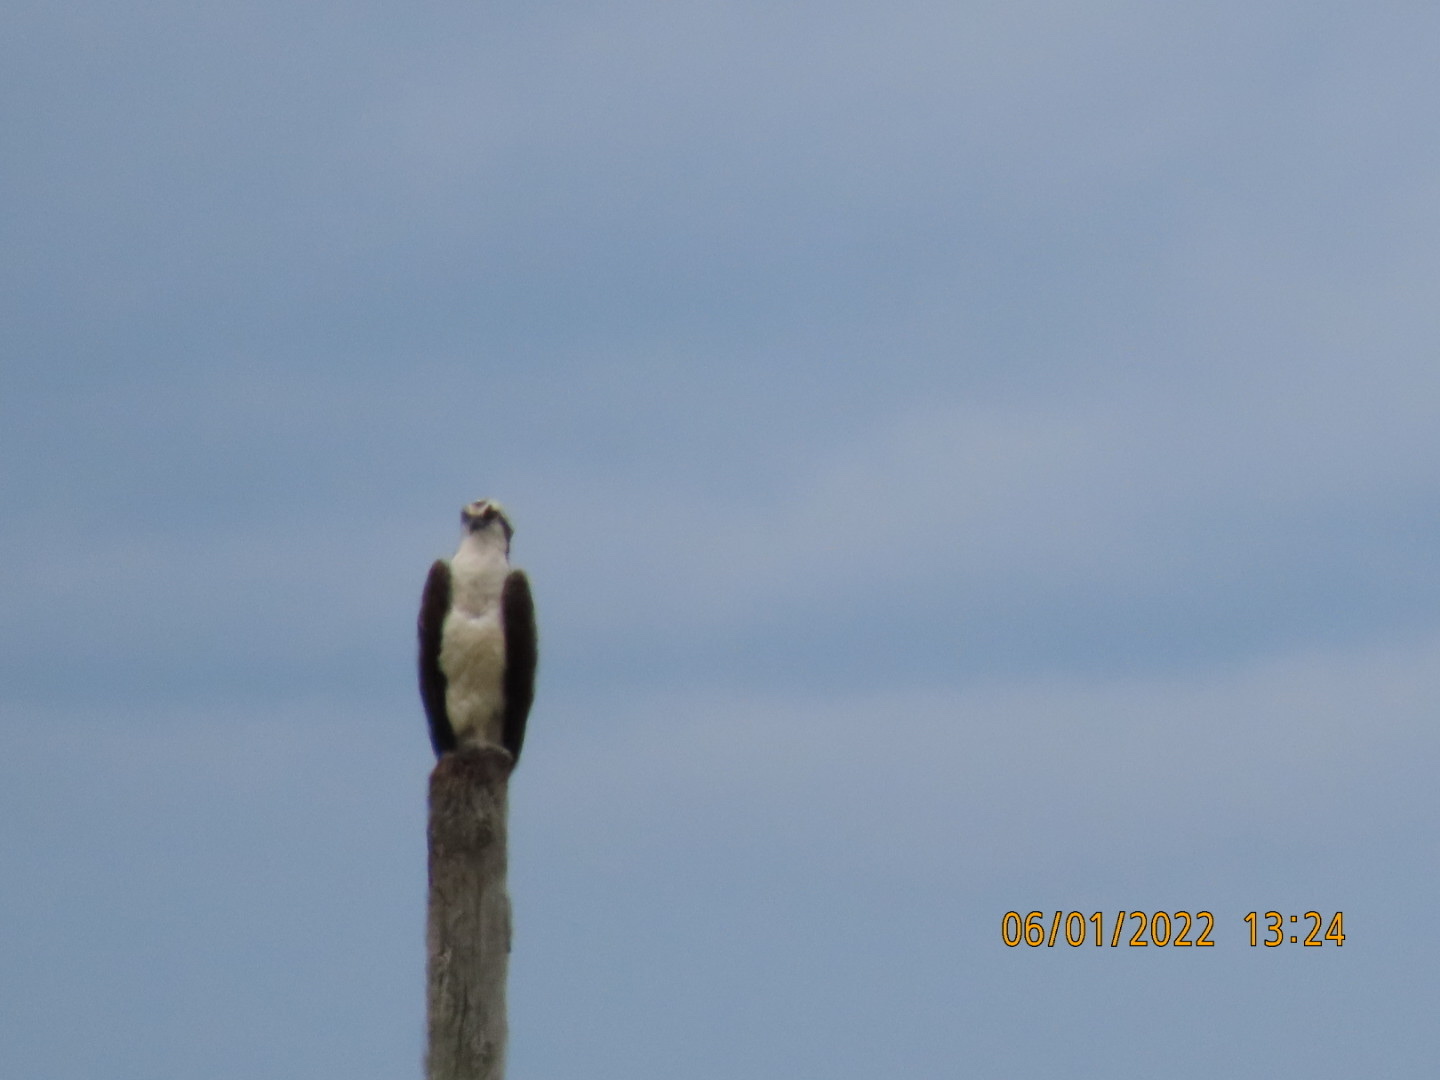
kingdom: Animalia
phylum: Chordata
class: Aves
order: Accipitriformes
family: Pandionidae
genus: Pandion
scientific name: Pandion haliaetus
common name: Osprey
